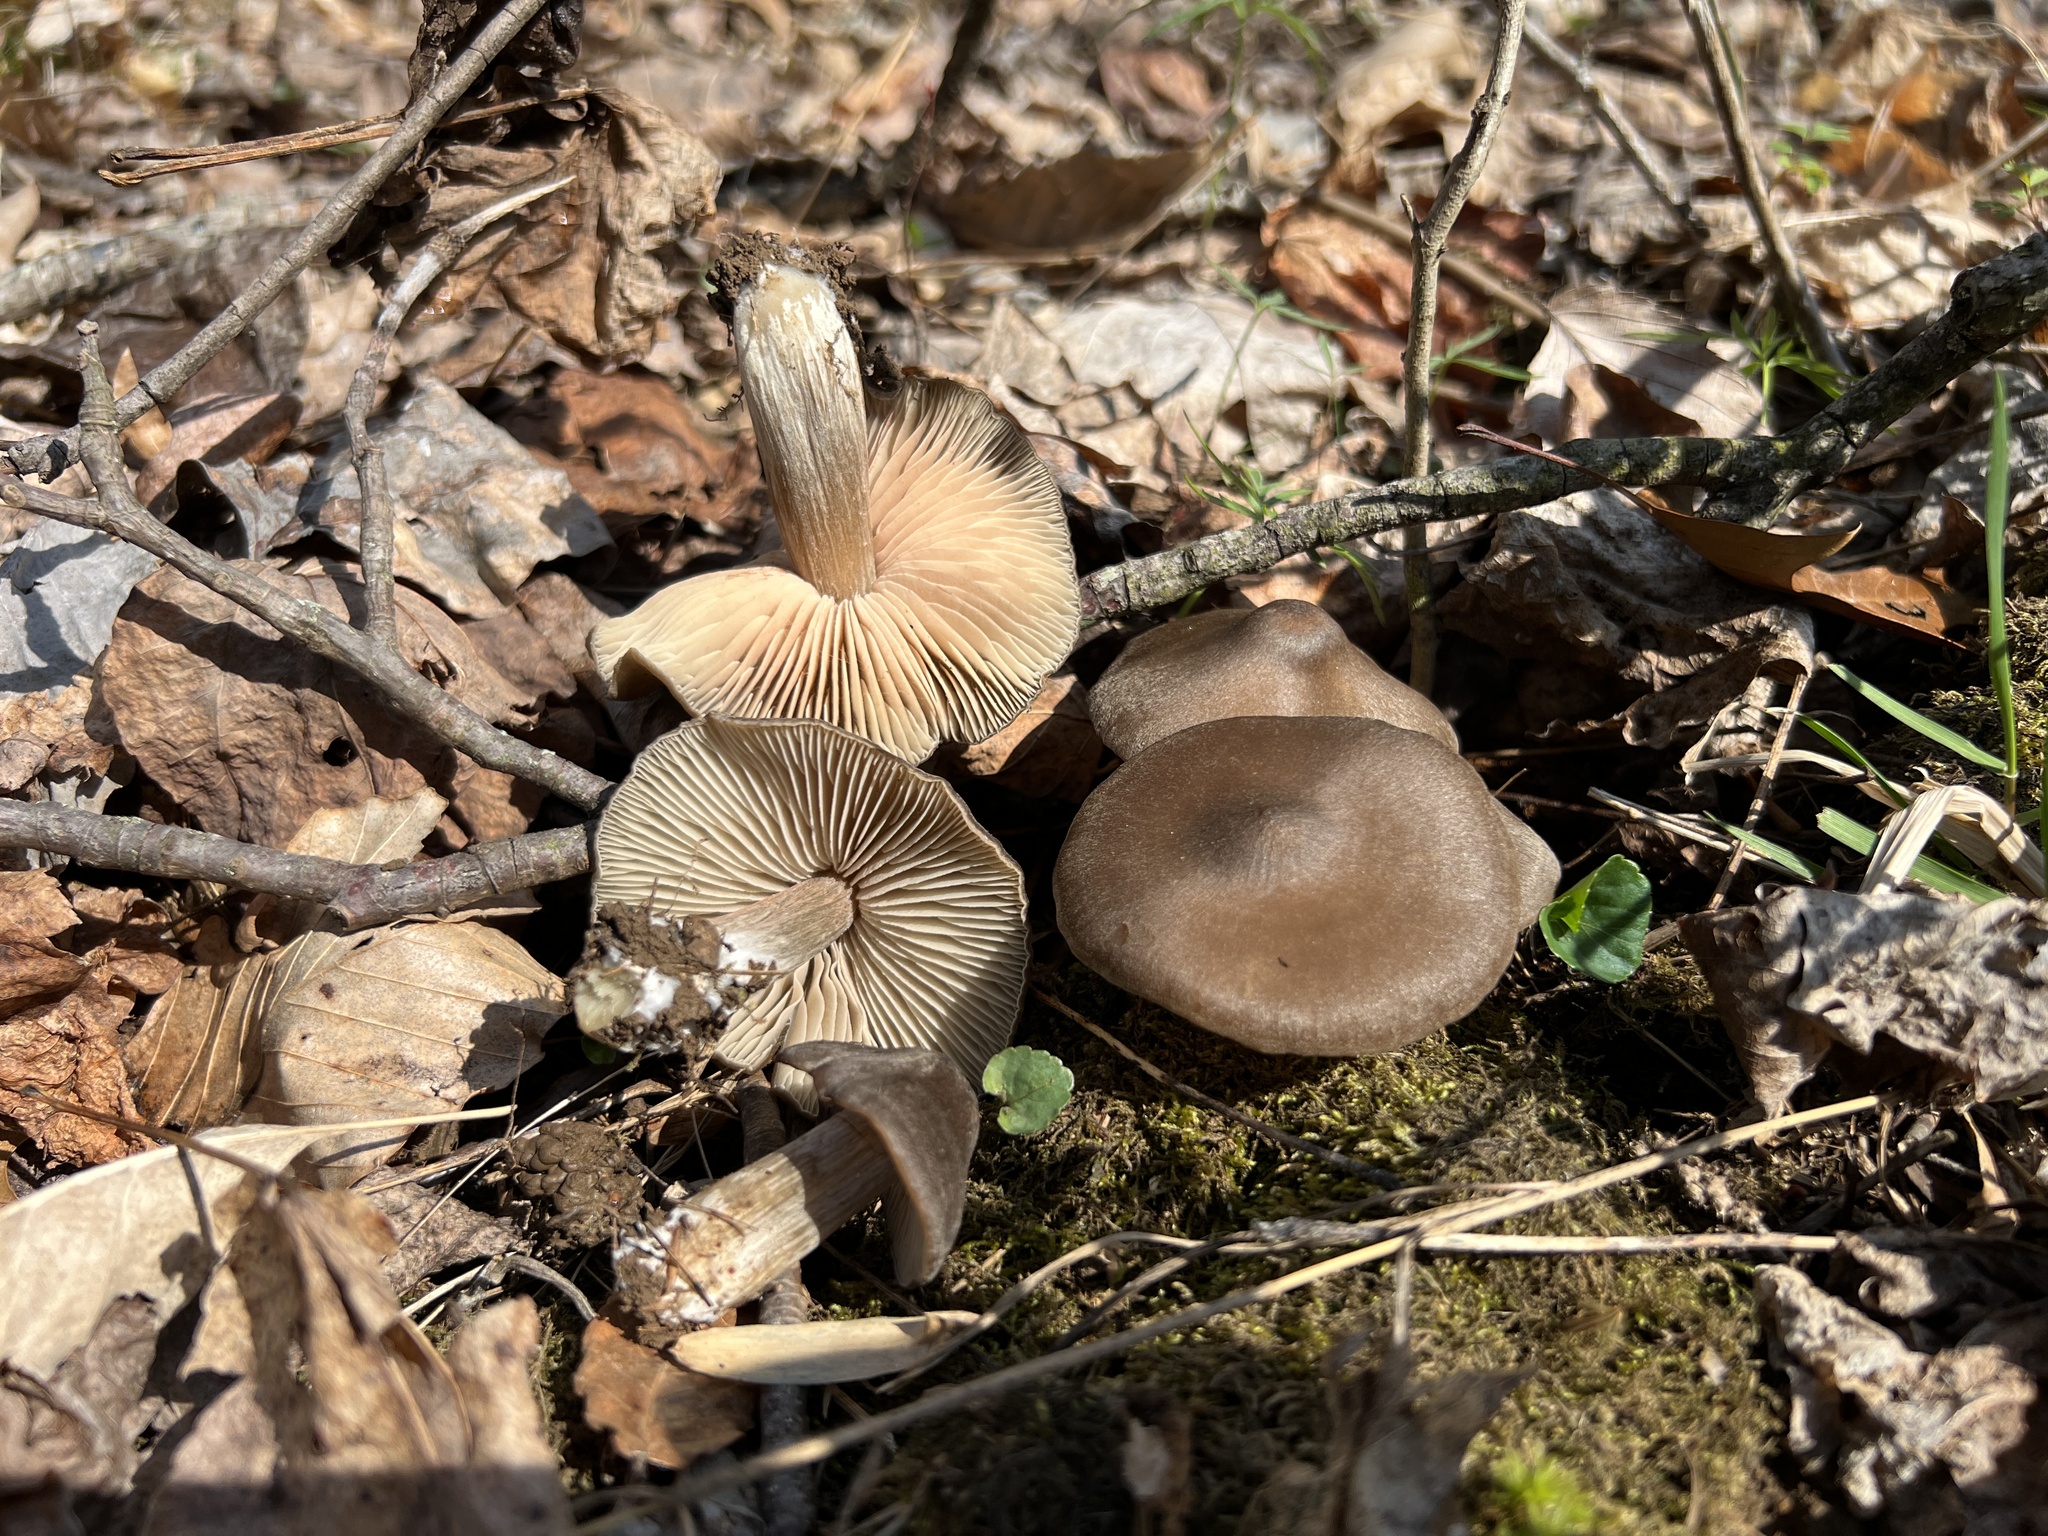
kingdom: Fungi
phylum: Basidiomycota
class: Agaricomycetes
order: Agaricales
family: Entolomataceae
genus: Entoloma
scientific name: Entoloma vernum
